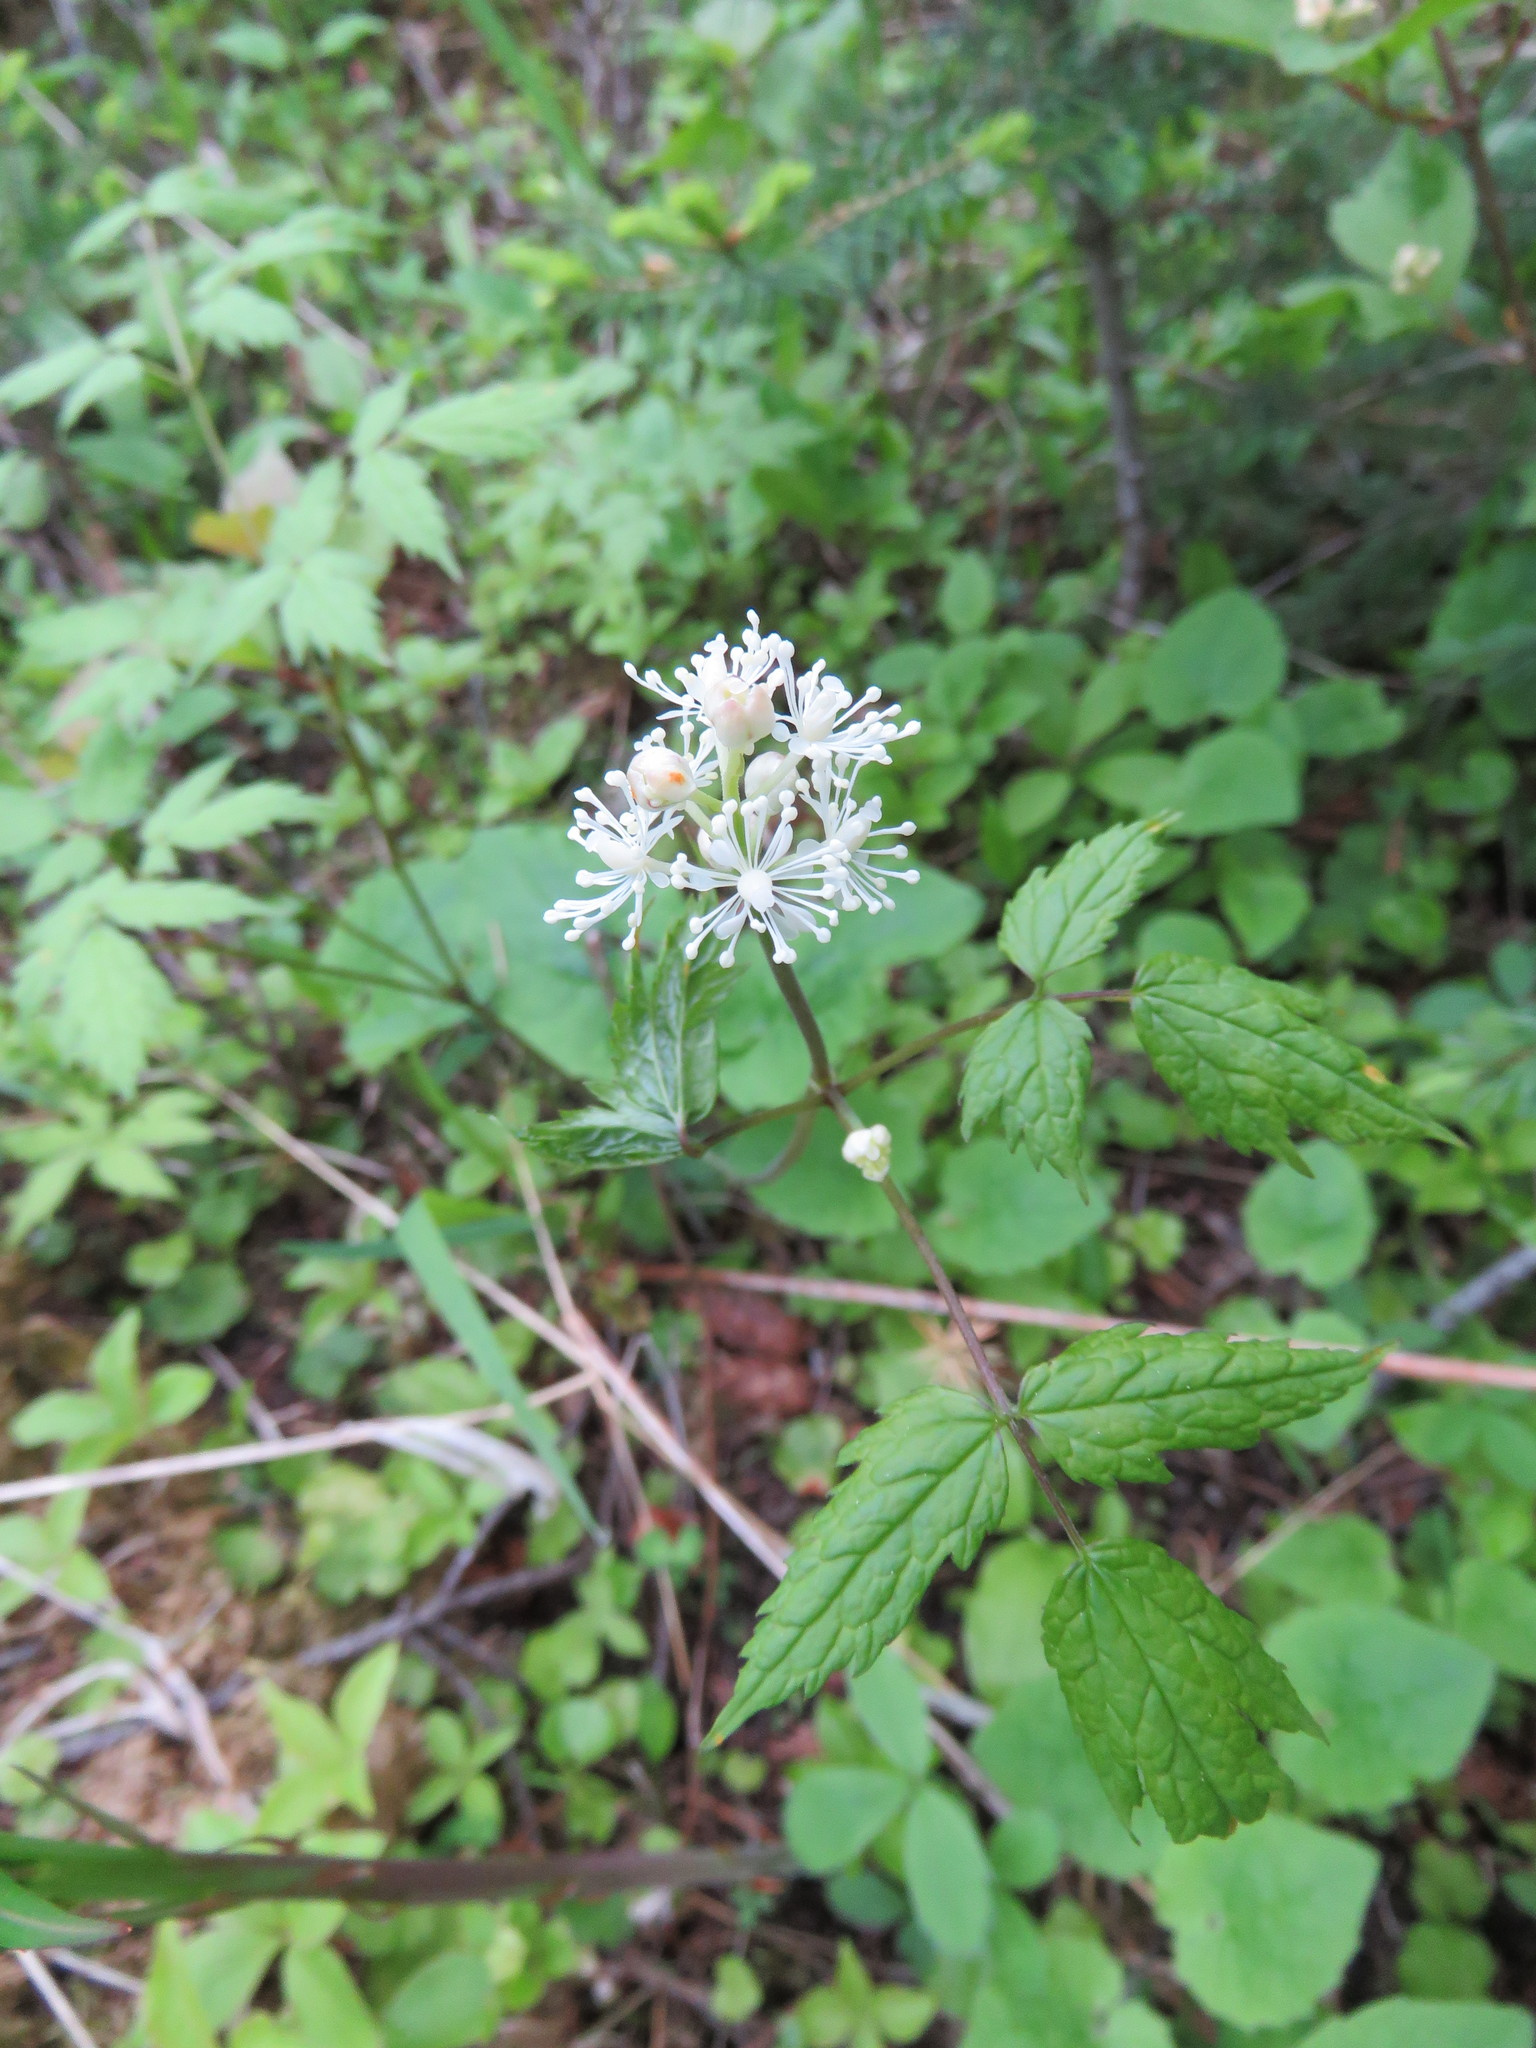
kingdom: Plantae
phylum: Tracheophyta
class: Magnoliopsida
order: Ranunculales
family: Ranunculaceae
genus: Actaea
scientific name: Actaea rubra
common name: Red baneberry
